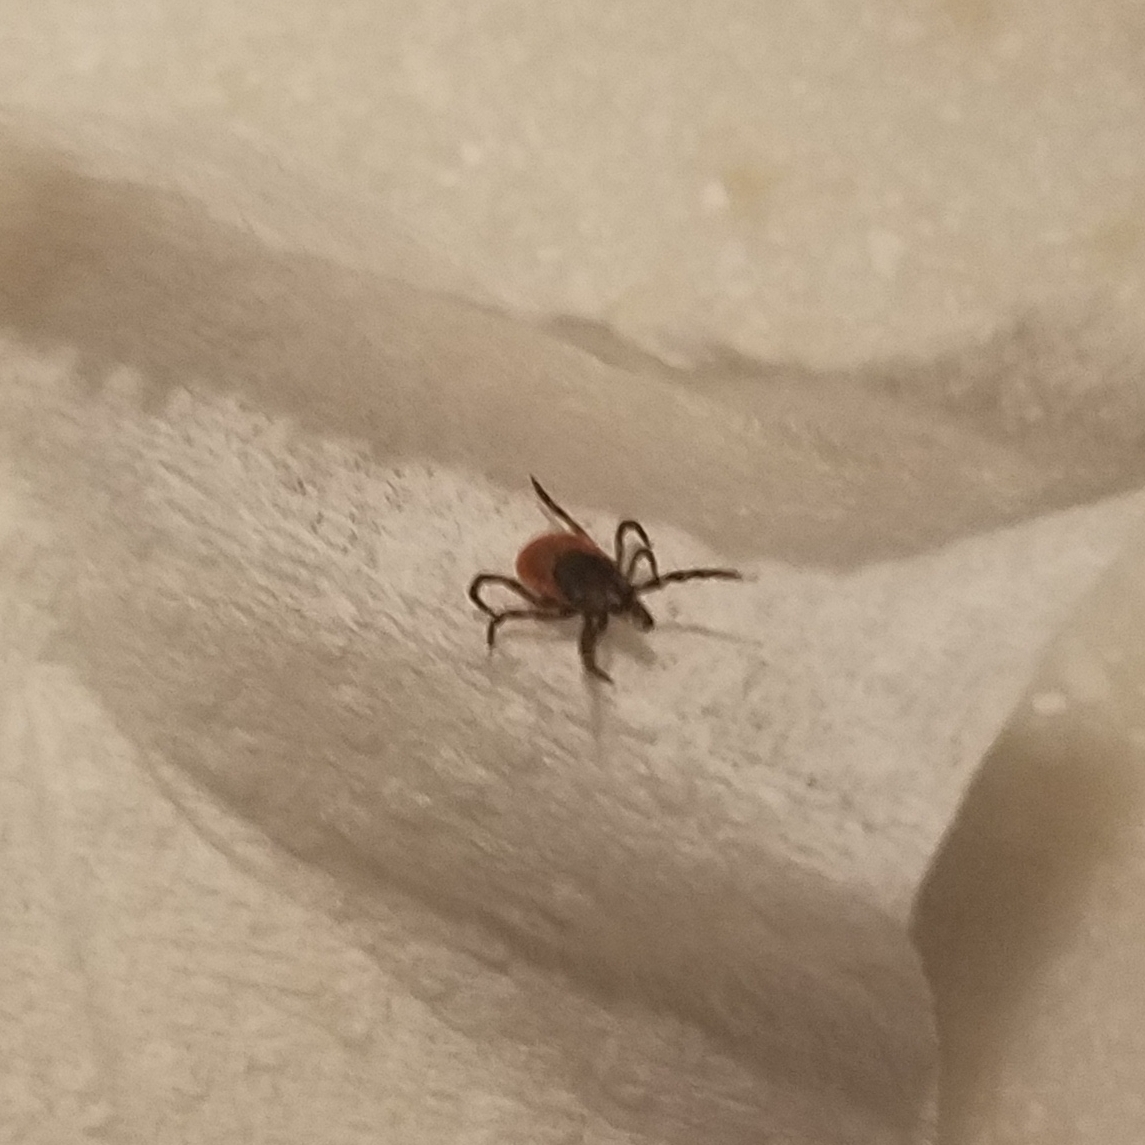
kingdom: Animalia
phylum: Arthropoda
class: Arachnida
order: Ixodida
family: Ixodidae
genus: Ixodes
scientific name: Ixodes scapularis
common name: Black legged tick
